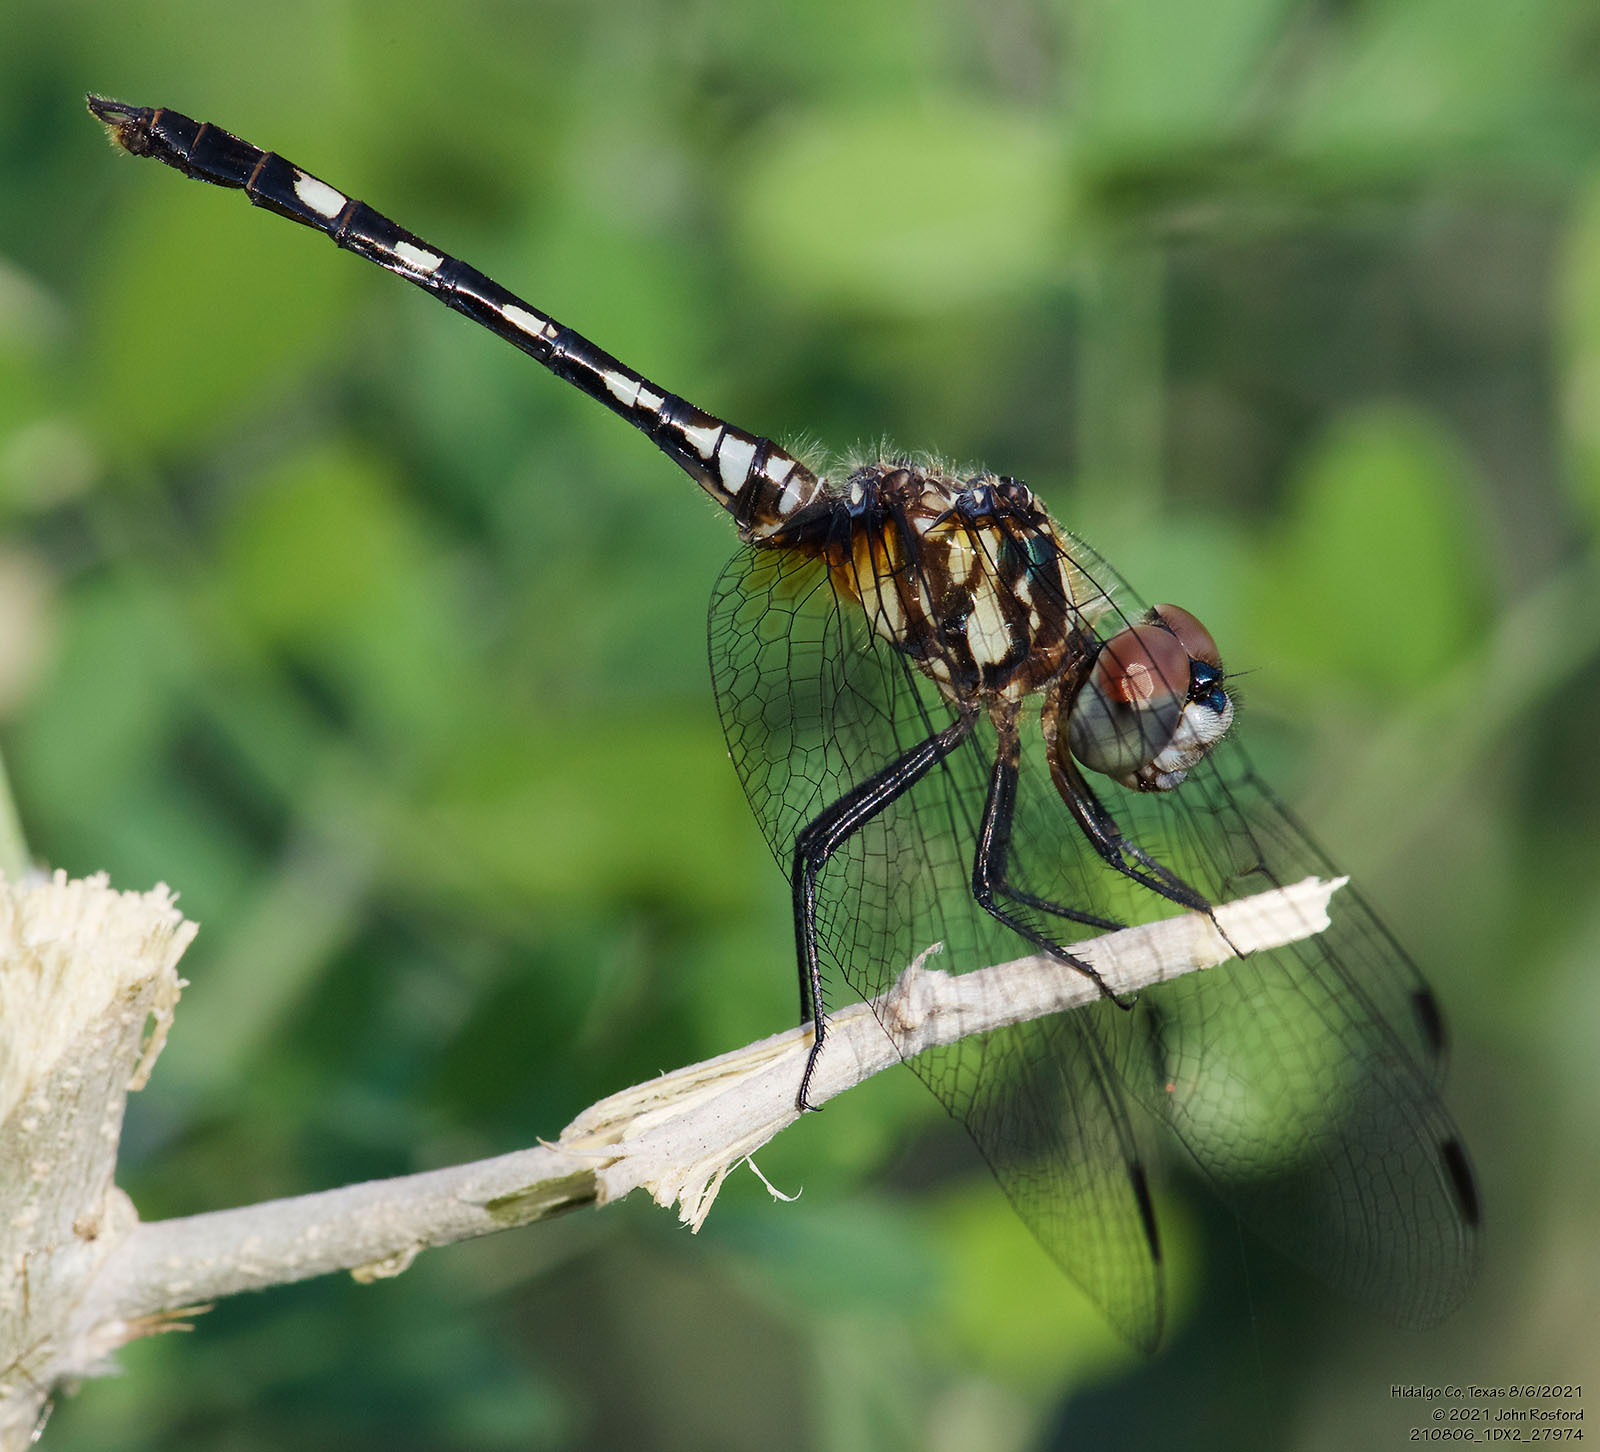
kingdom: Animalia
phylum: Arthropoda
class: Insecta
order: Odonata
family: Libellulidae
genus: Micrathyria
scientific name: Micrathyria hagenii
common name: Thornbush dasher
